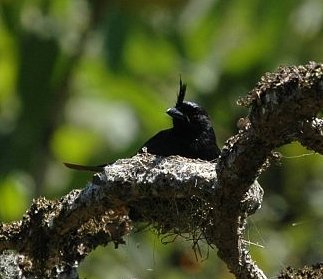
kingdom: Animalia
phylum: Chordata
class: Aves
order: Passeriformes
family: Dicruridae
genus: Dicrurus
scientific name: Dicrurus forficatus
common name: Crested drongo
